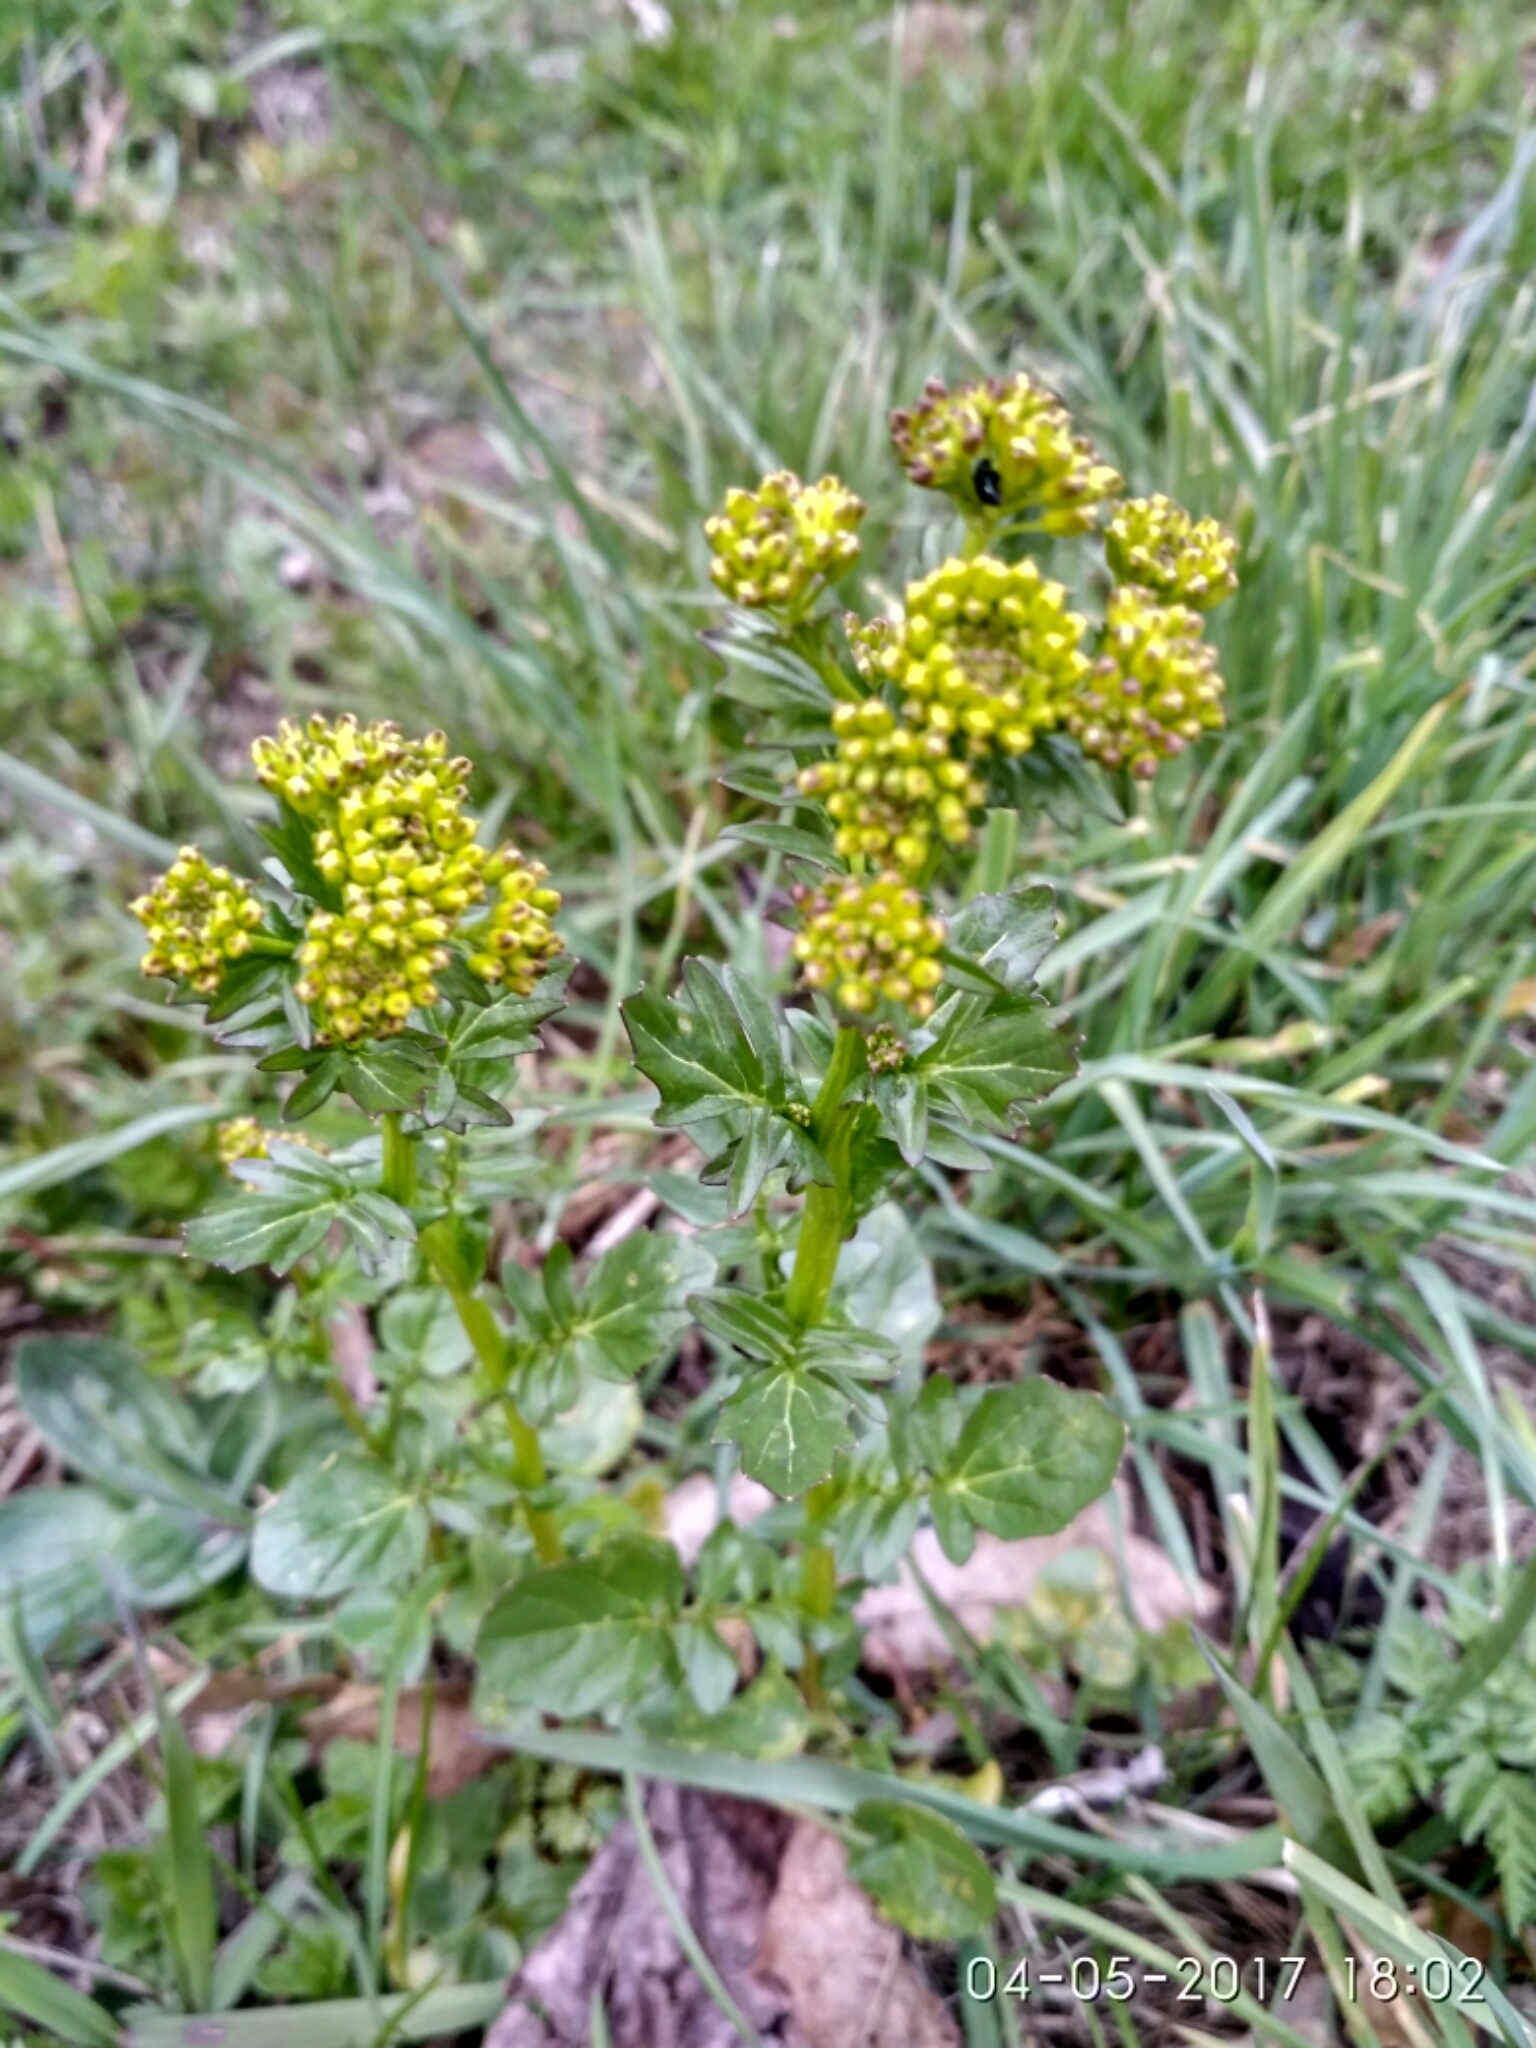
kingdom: Plantae
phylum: Tracheophyta
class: Magnoliopsida
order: Brassicales
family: Brassicaceae
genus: Barbarea
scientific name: Barbarea vulgaris
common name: Cressy-greens
